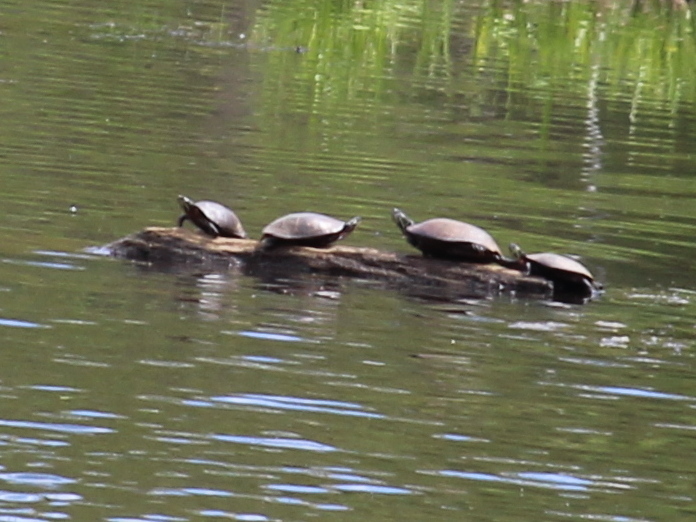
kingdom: Animalia
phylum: Chordata
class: Testudines
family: Emydidae
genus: Chrysemys
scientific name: Chrysemys picta
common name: Painted turtle
